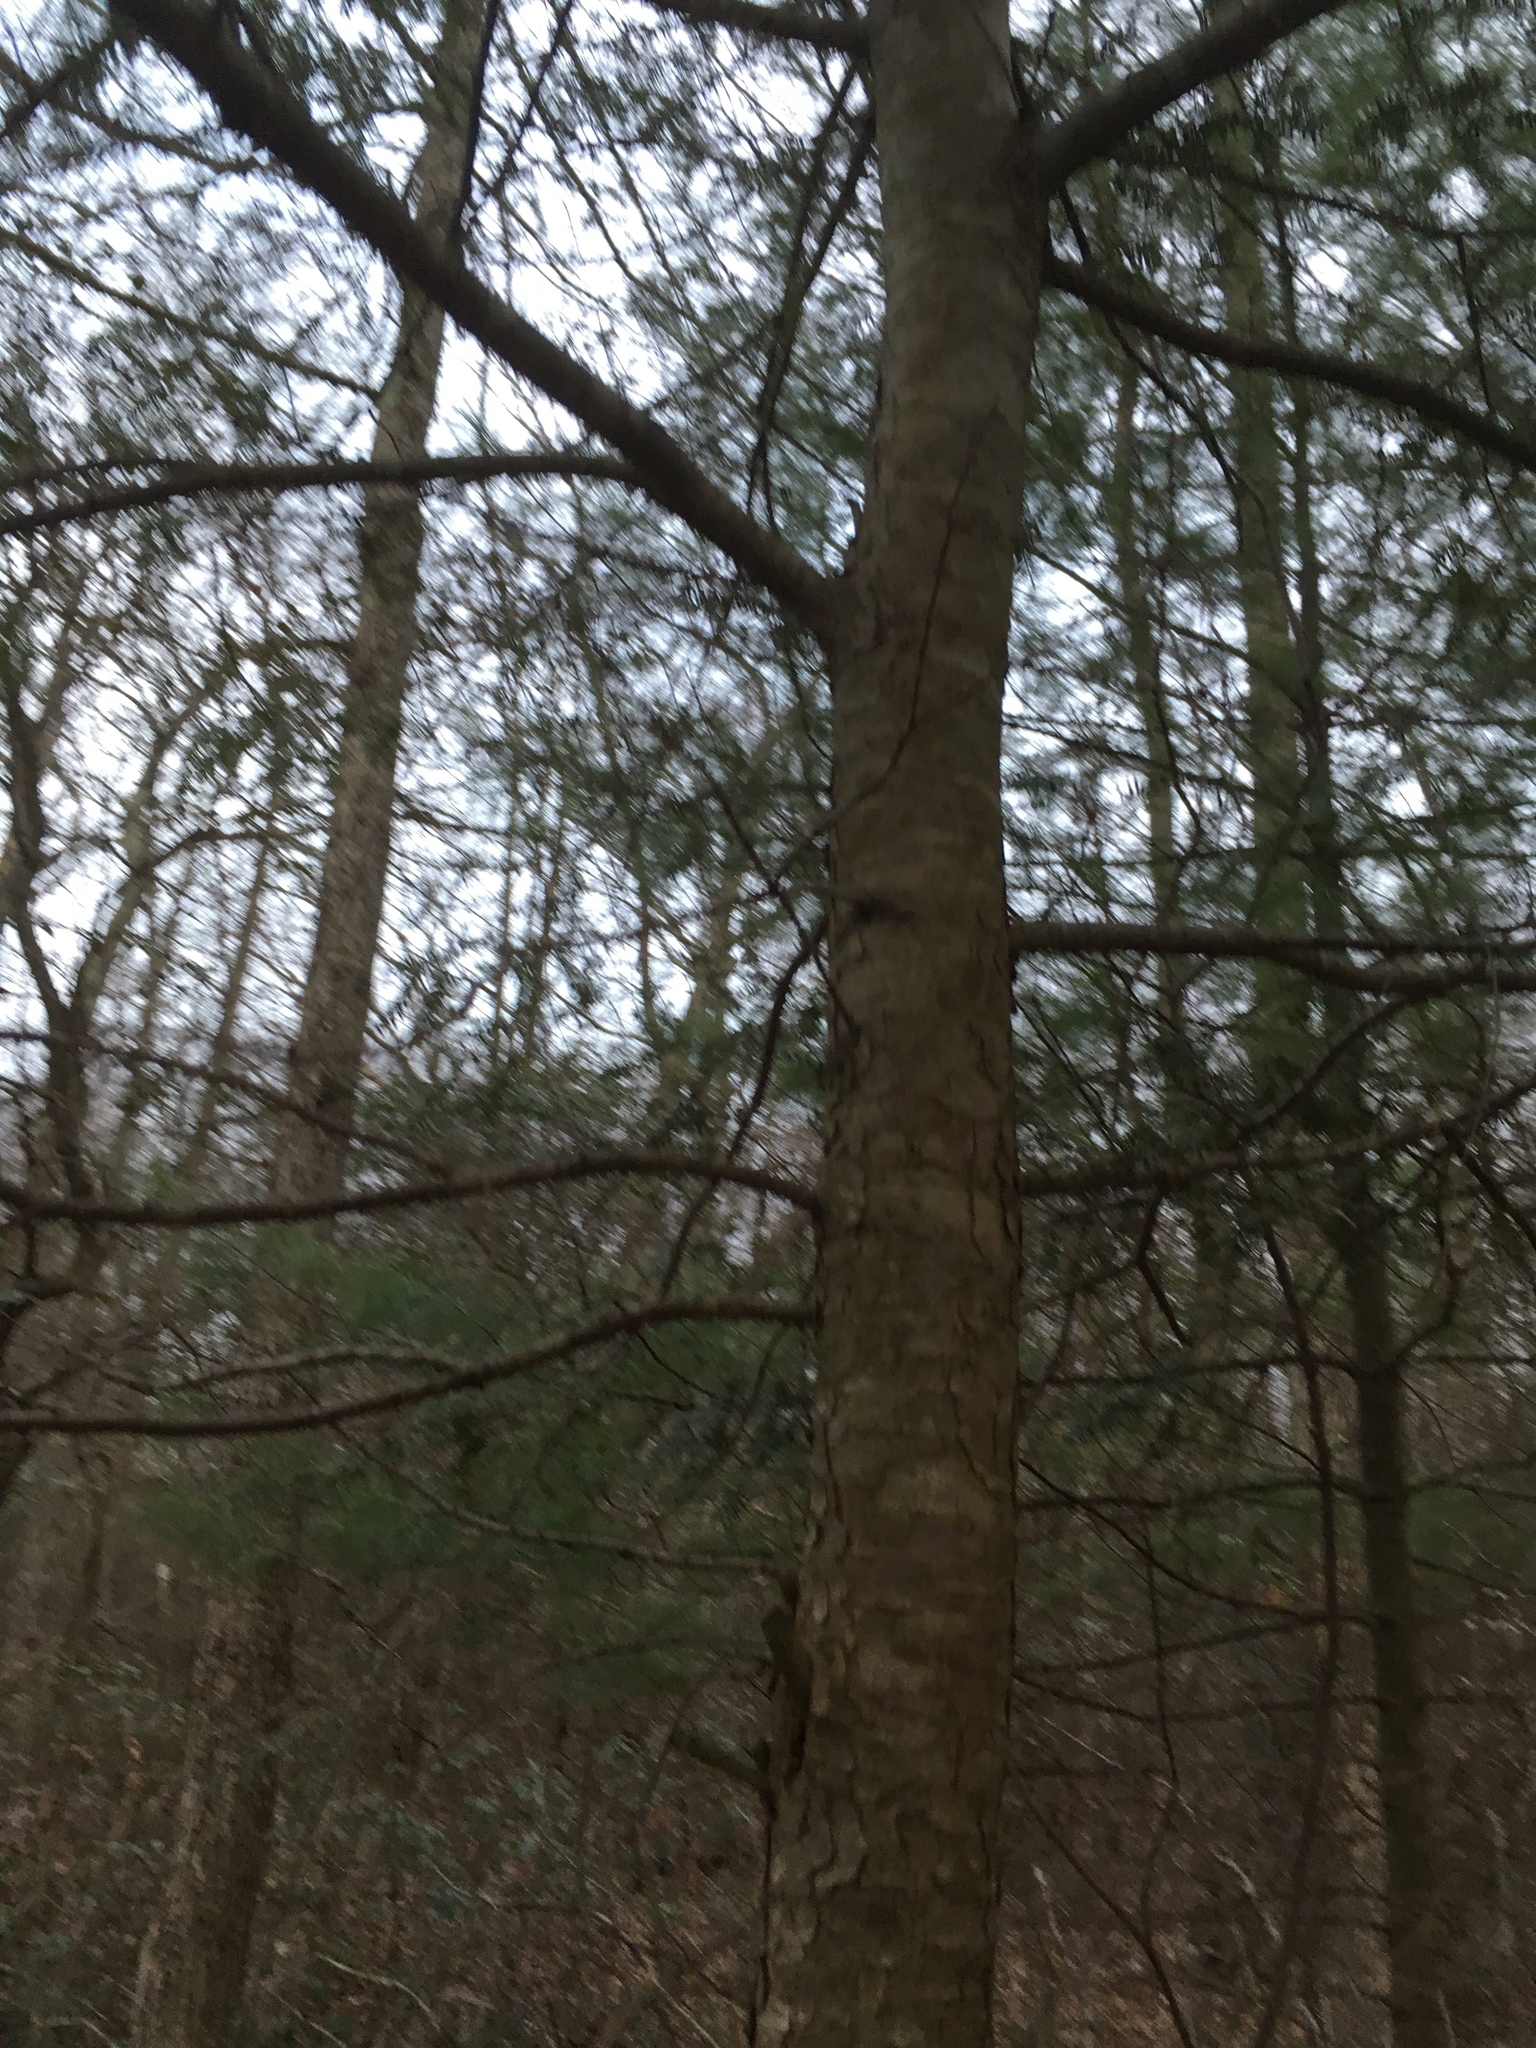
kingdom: Plantae
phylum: Tracheophyta
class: Pinopsida
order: Pinales
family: Pinaceae
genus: Tsuga
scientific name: Tsuga canadensis
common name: Eastern hemlock
